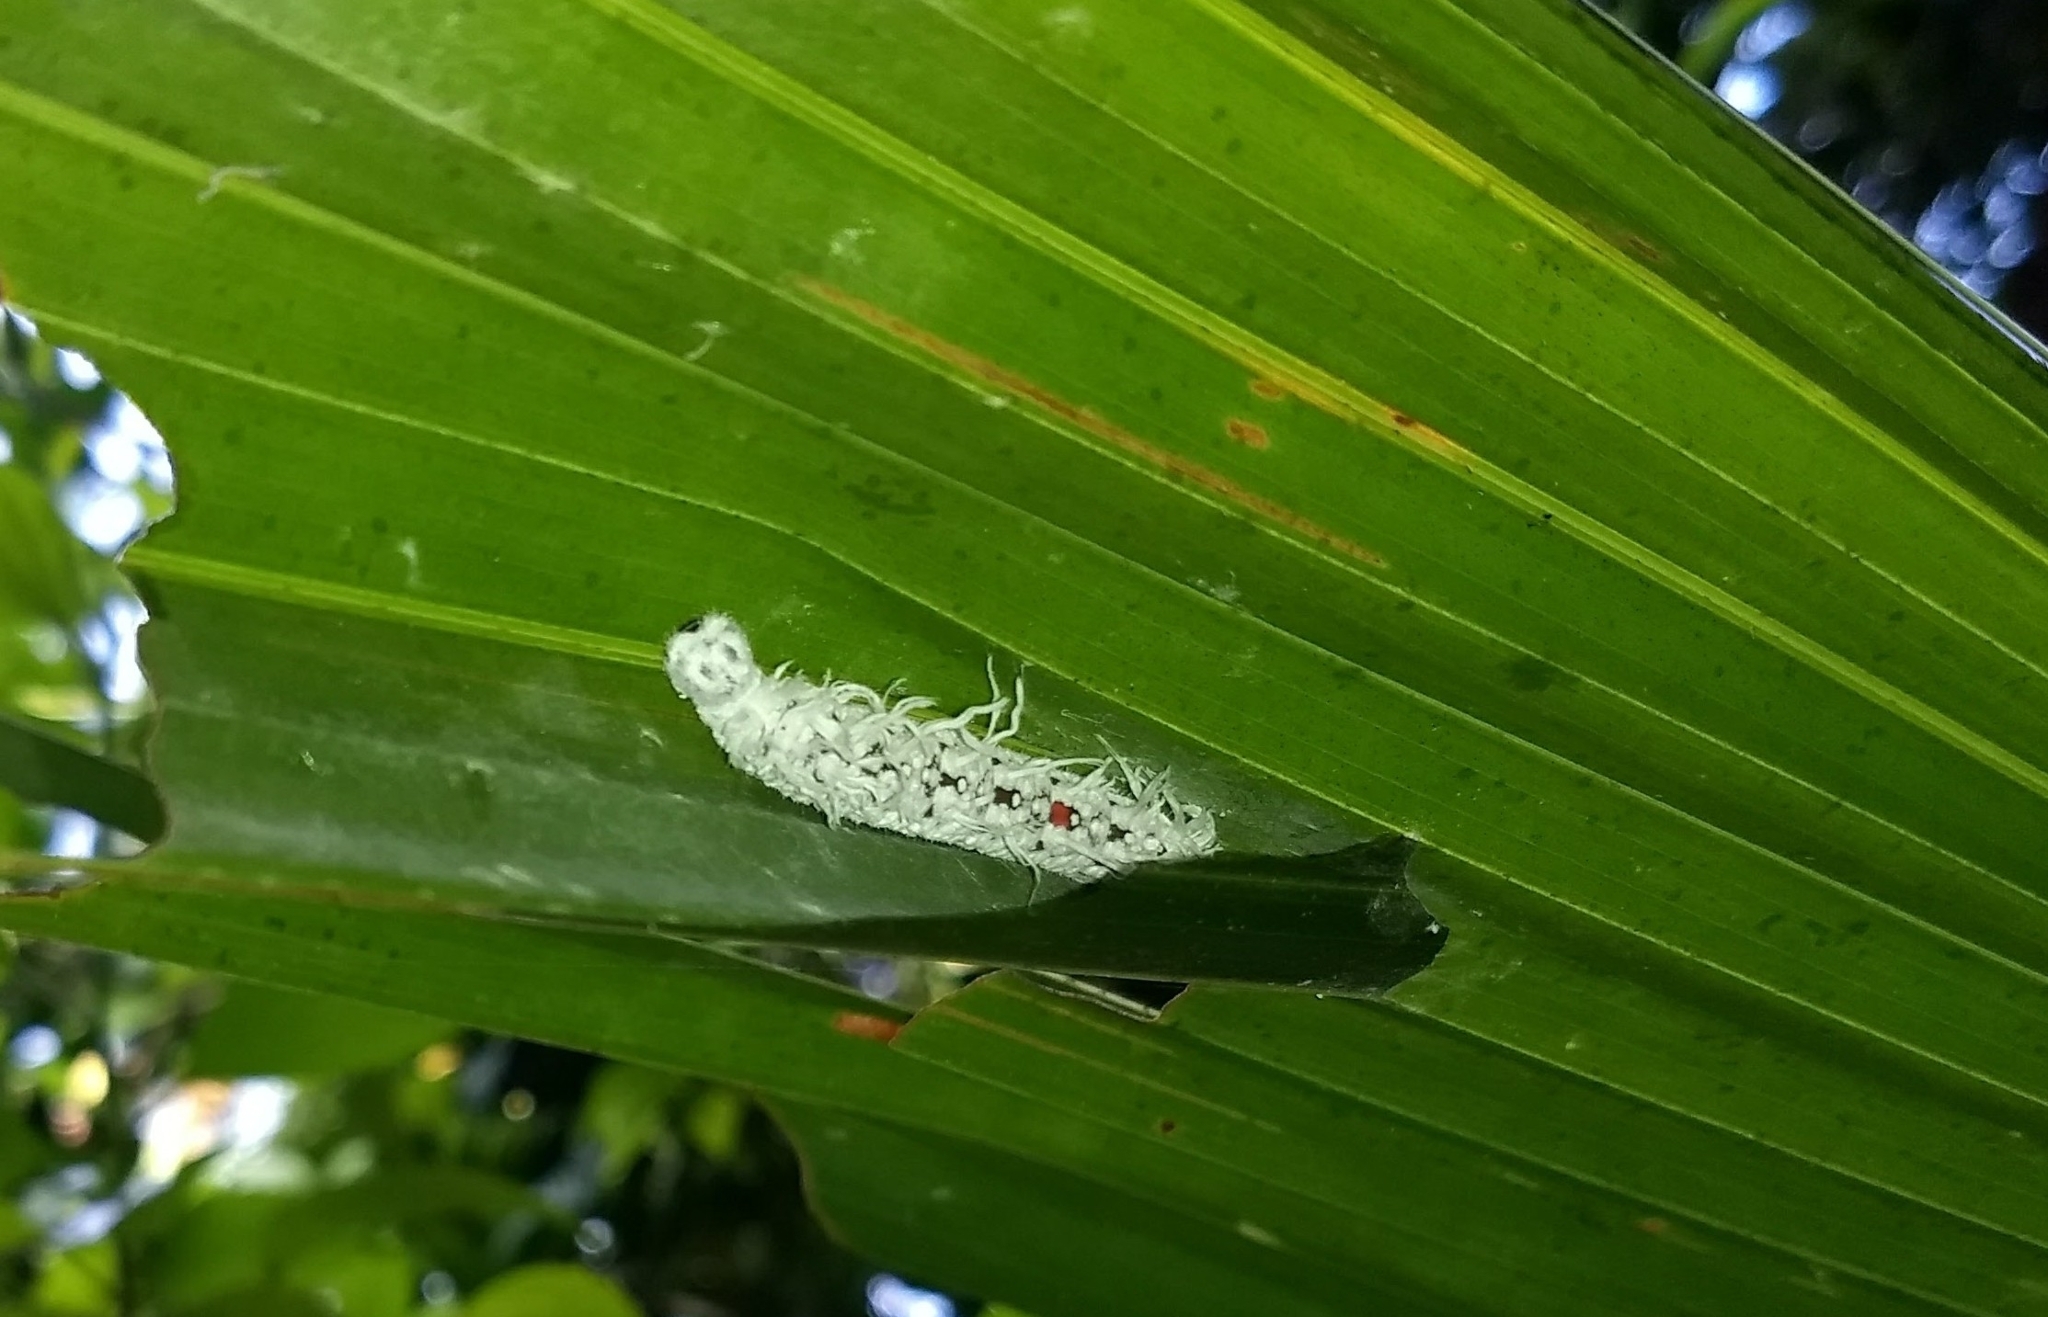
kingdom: Animalia
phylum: Arthropoda
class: Insecta
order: Lepidoptera
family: Hesperiidae
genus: Gangara
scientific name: Gangara thyrsis
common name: Giant redeye
